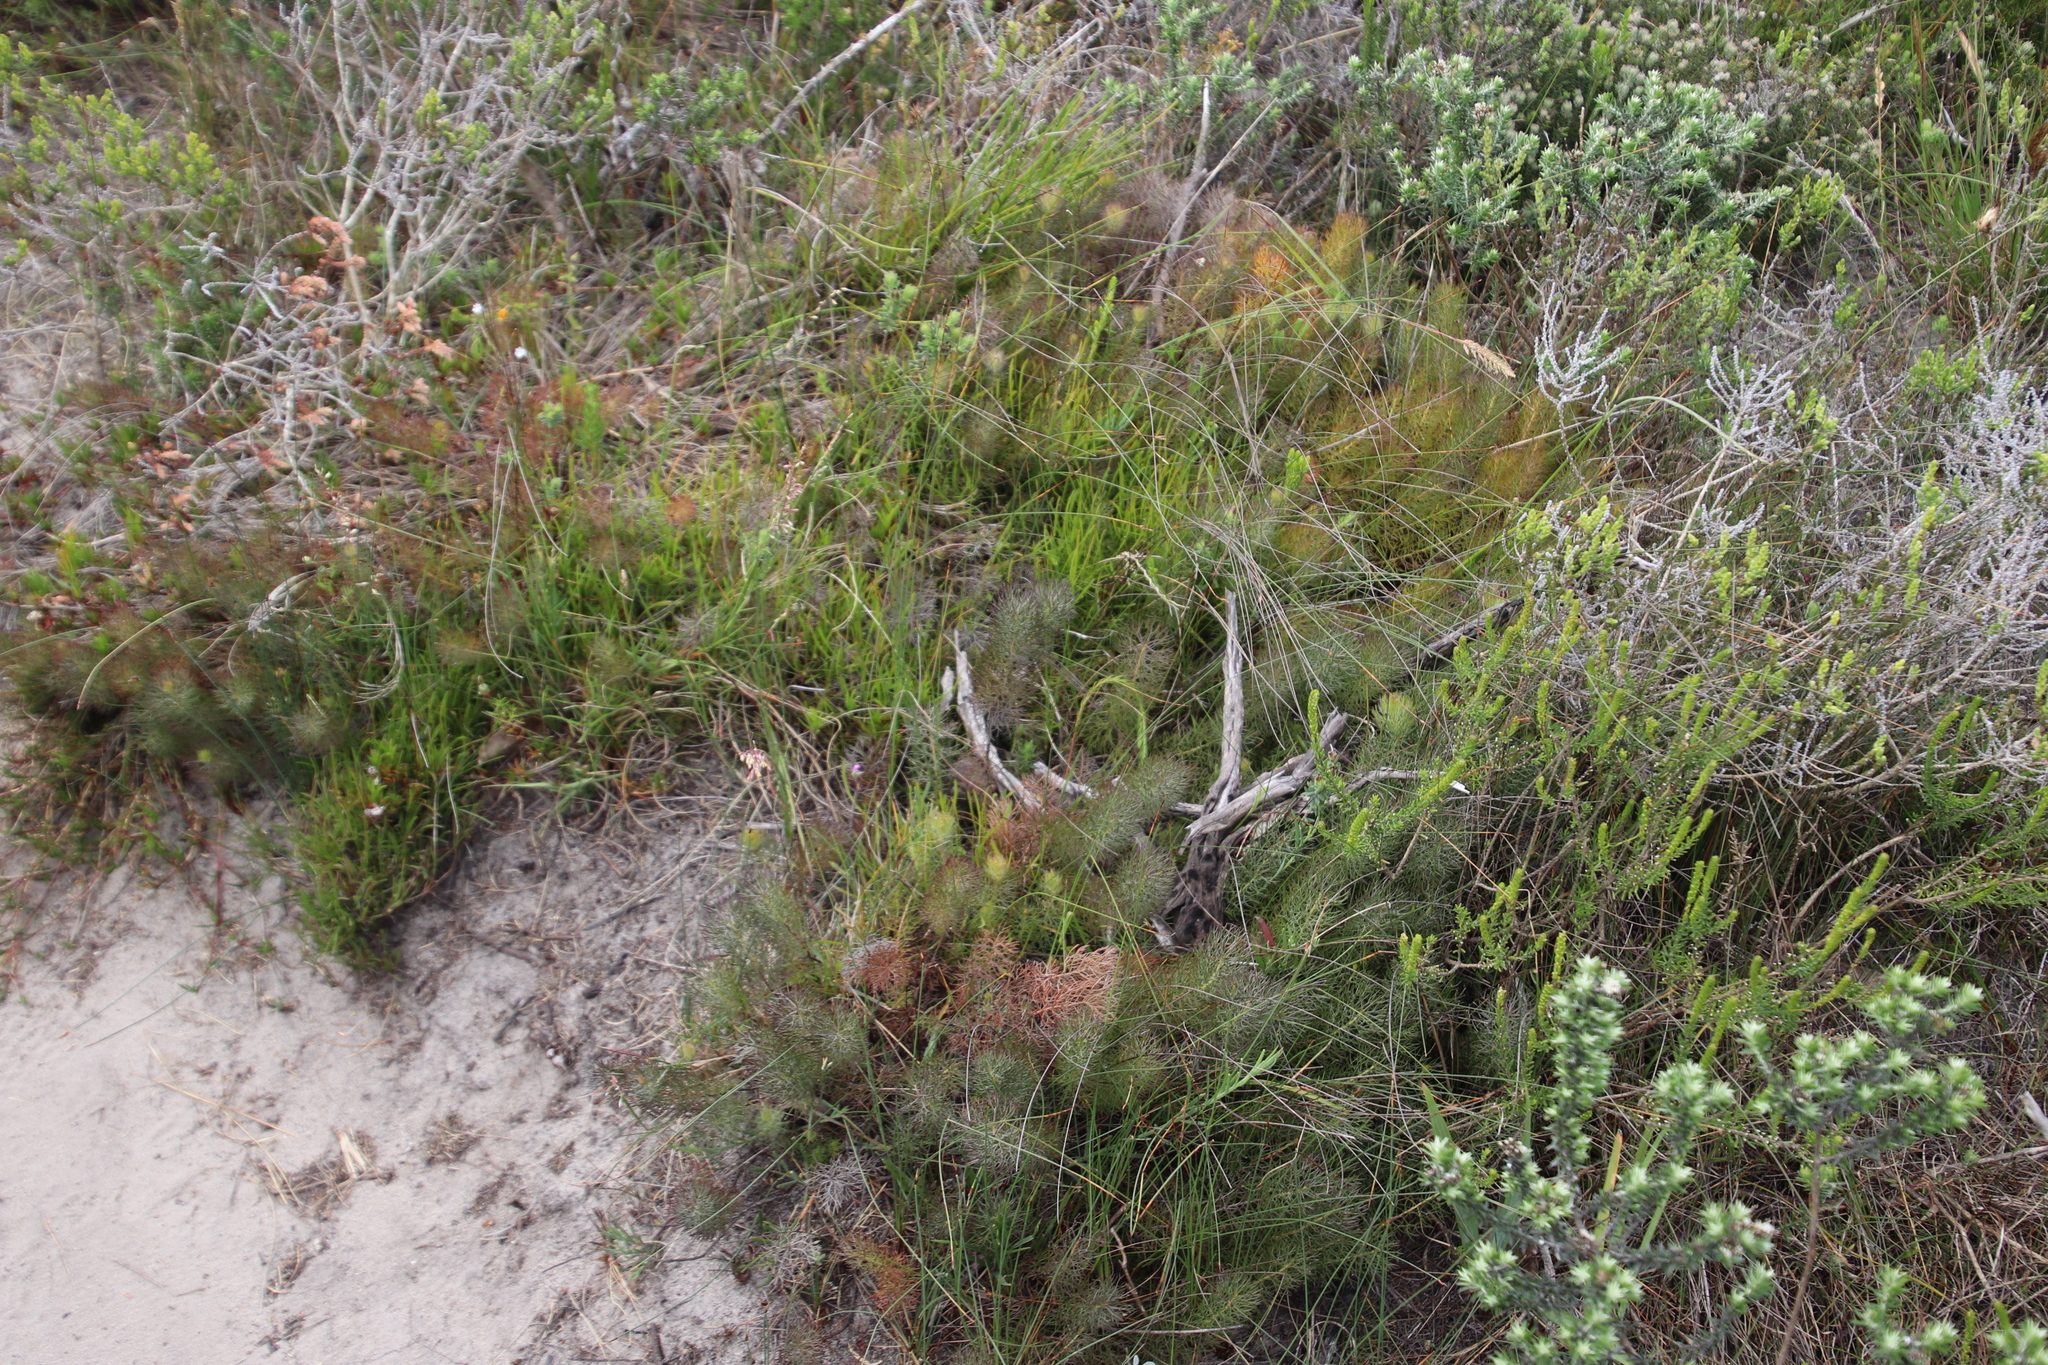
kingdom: Plantae
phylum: Tracheophyta
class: Magnoliopsida
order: Proteales
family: Proteaceae
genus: Serruria
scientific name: Serruria cyanoides
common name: Wynberg spiderhead
